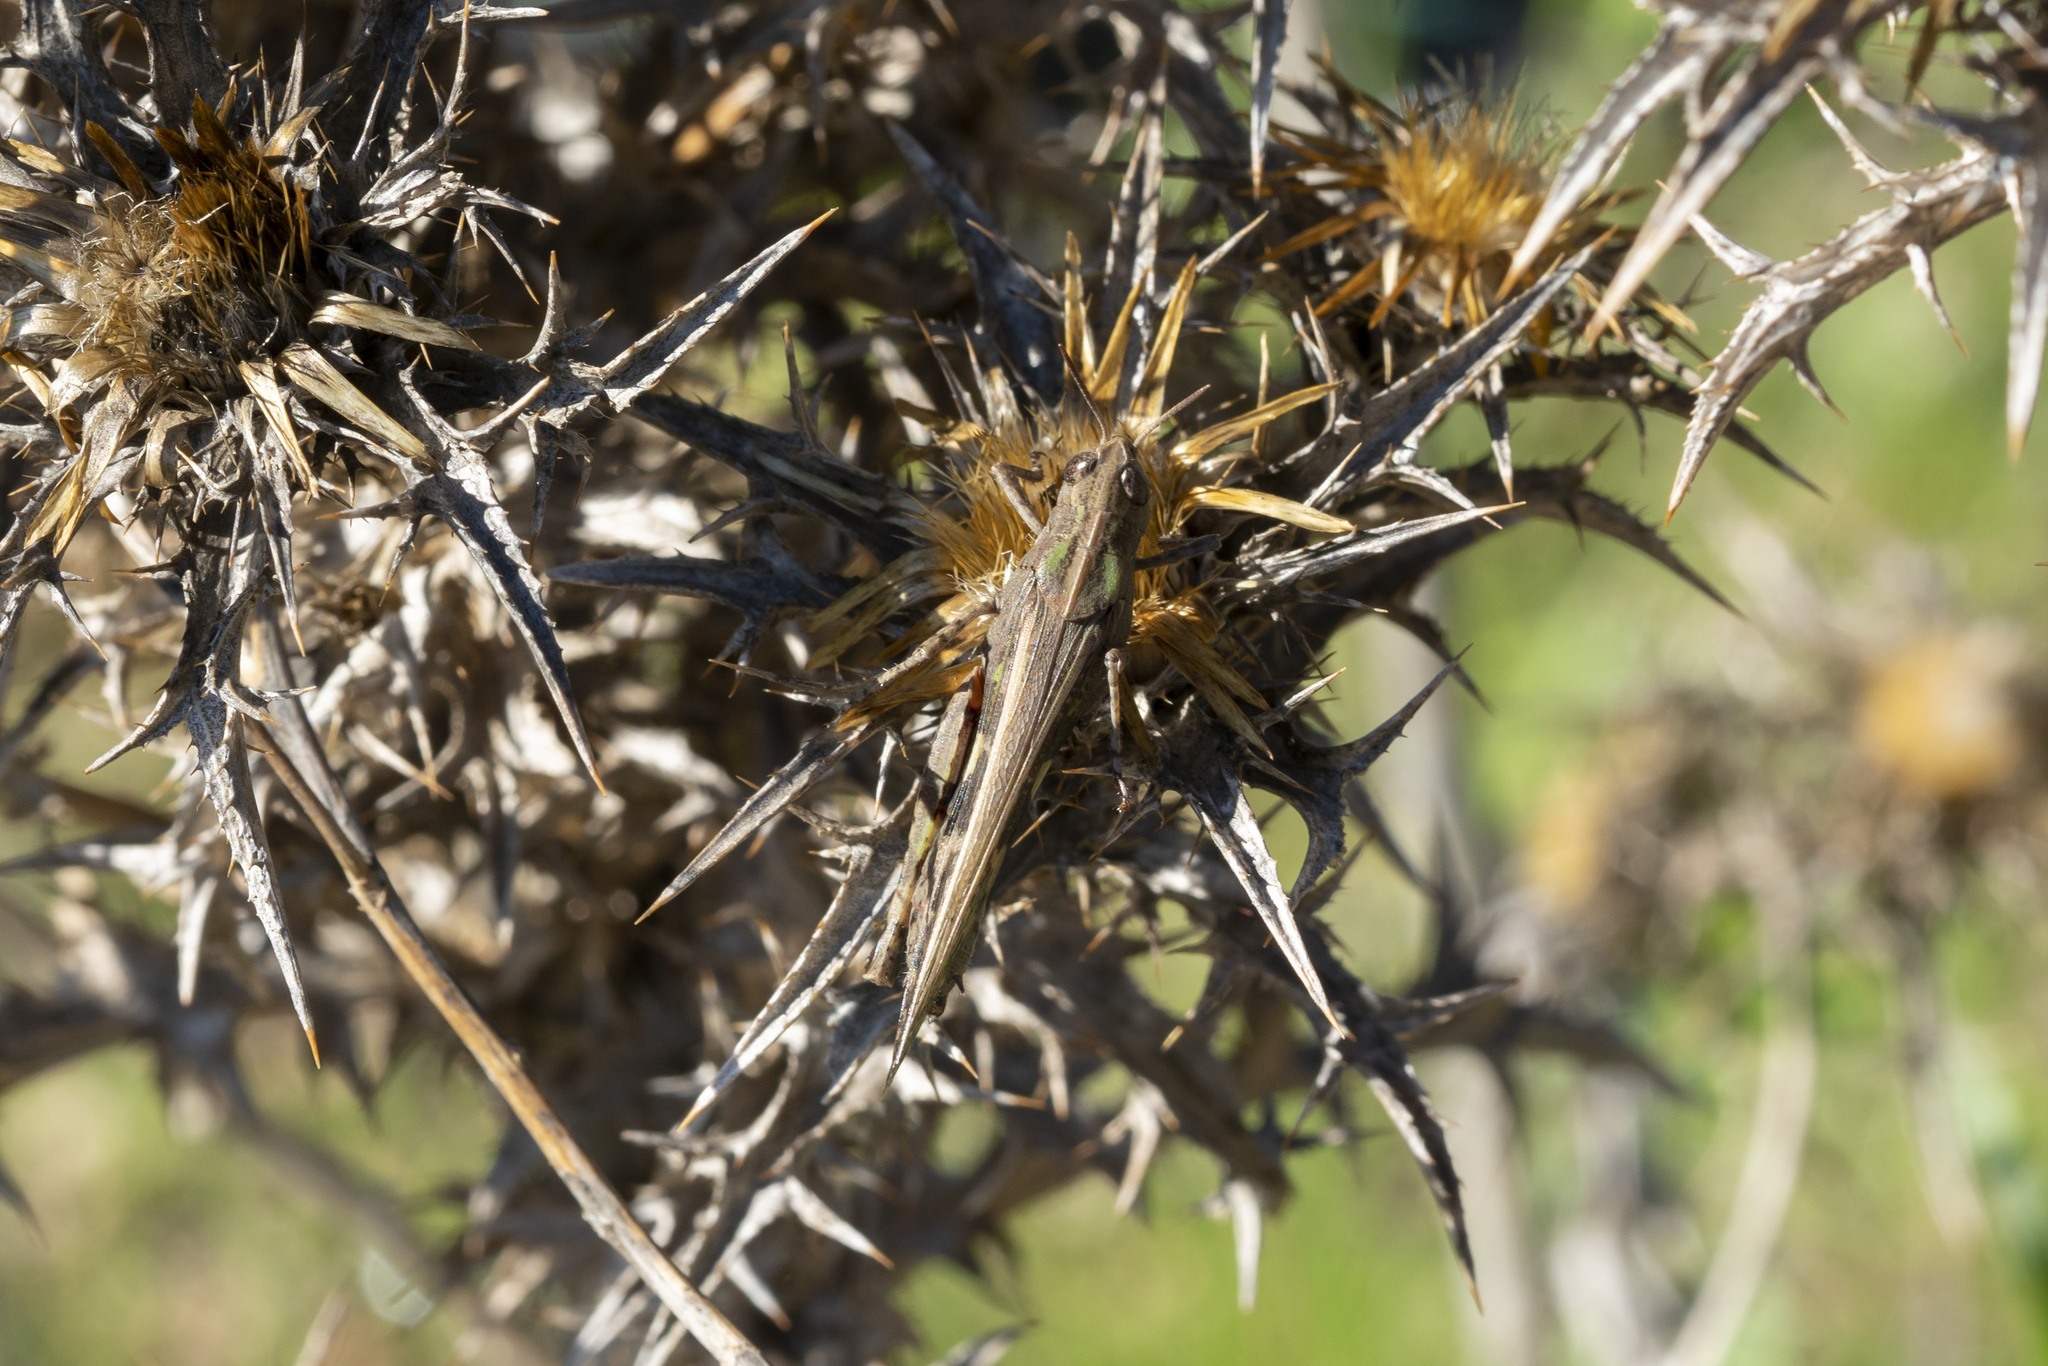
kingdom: Animalia
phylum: Arthropoda
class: Insecta
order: Orthoptera
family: Acrididae
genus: Aiolopus
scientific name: Aiolopus strepens
